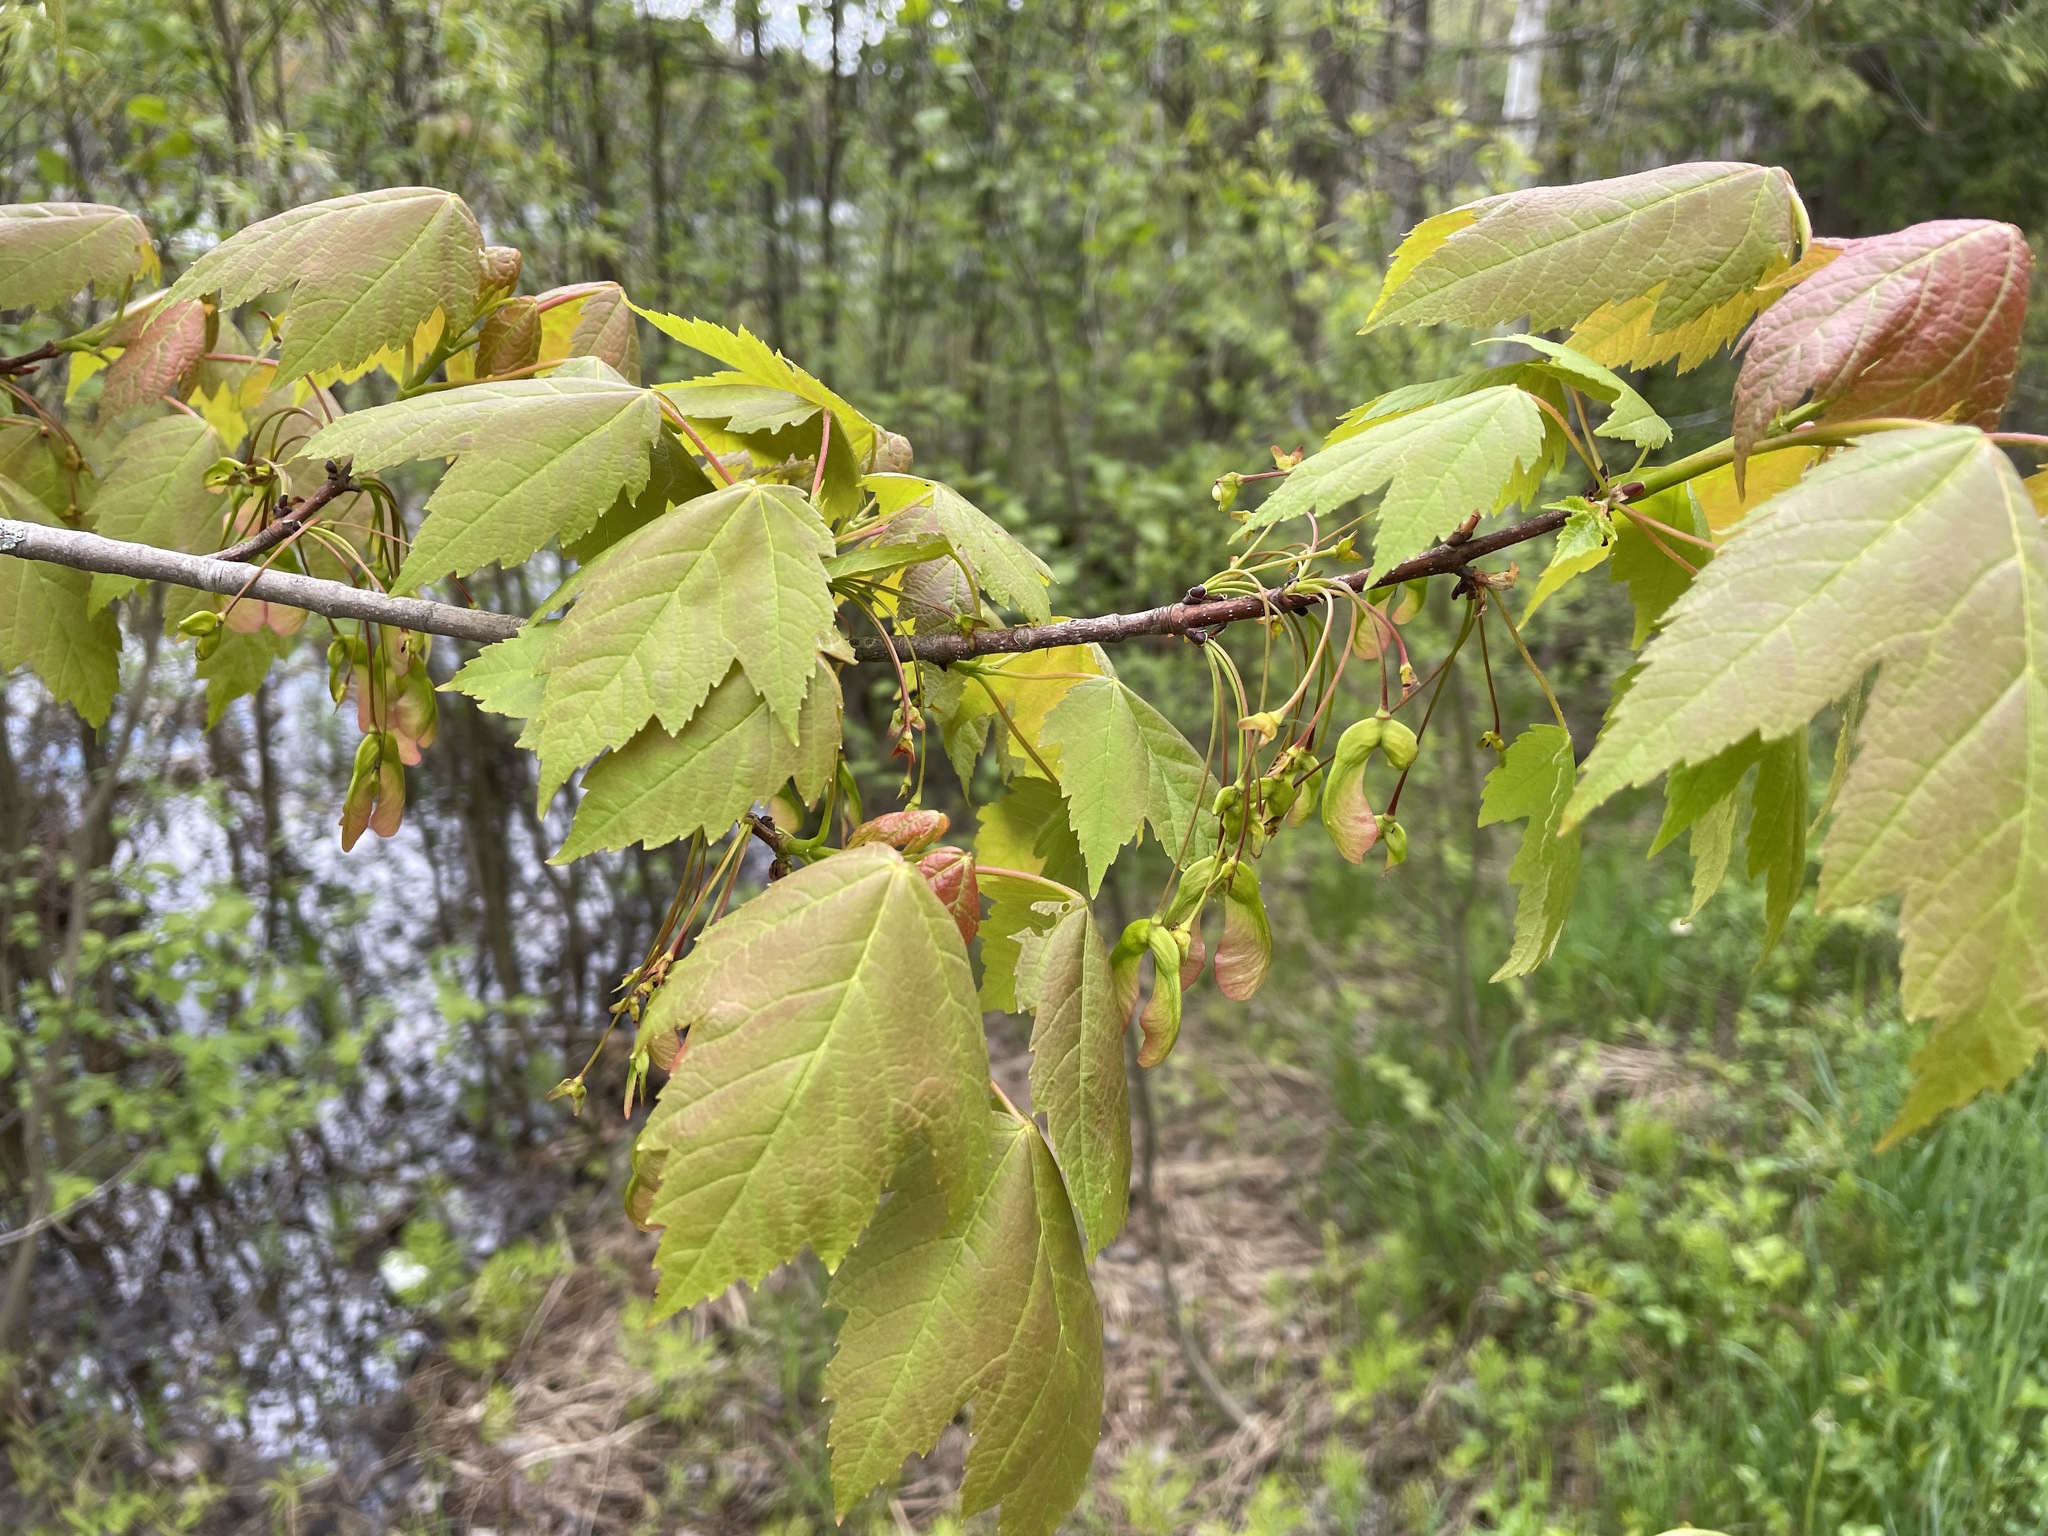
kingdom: Plantae
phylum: Tracheophyta
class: Magnoliopsida
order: Sapindales
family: Sapindaceae
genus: Acer
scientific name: Acer rubrum
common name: Red maple
